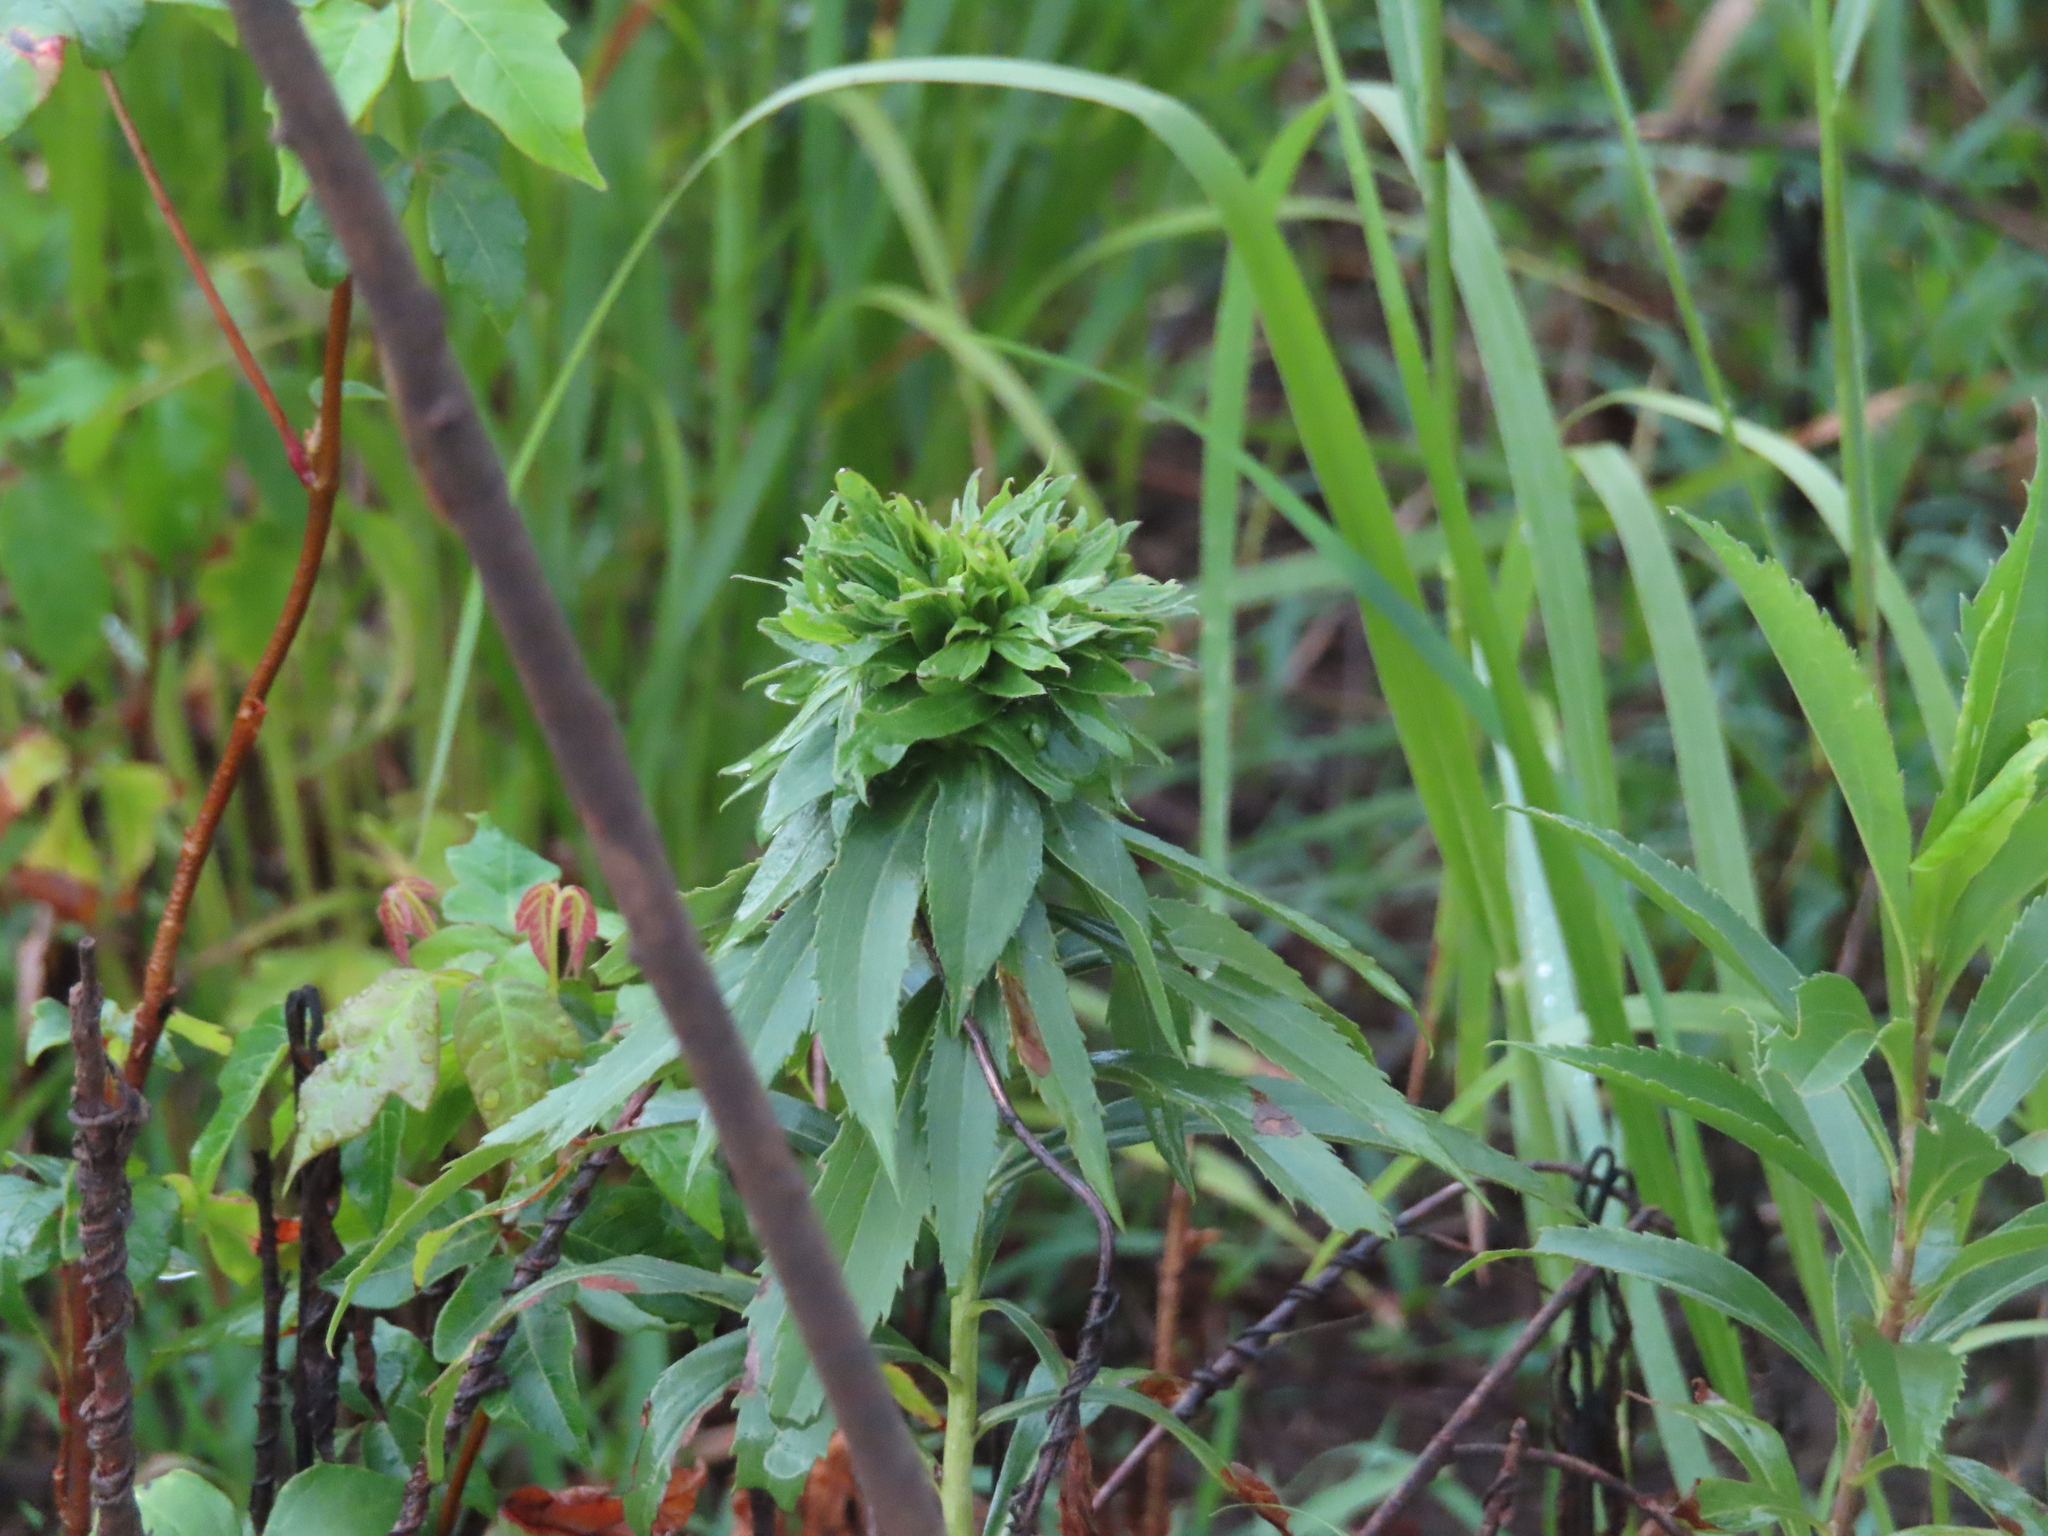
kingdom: Animalia
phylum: Arthropoda
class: Insecta
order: Diptera
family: Cecidomyiidae
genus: Rhopalomyia
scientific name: Rhopalomyia solidaginis
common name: Goldenrod bunch gall midge
